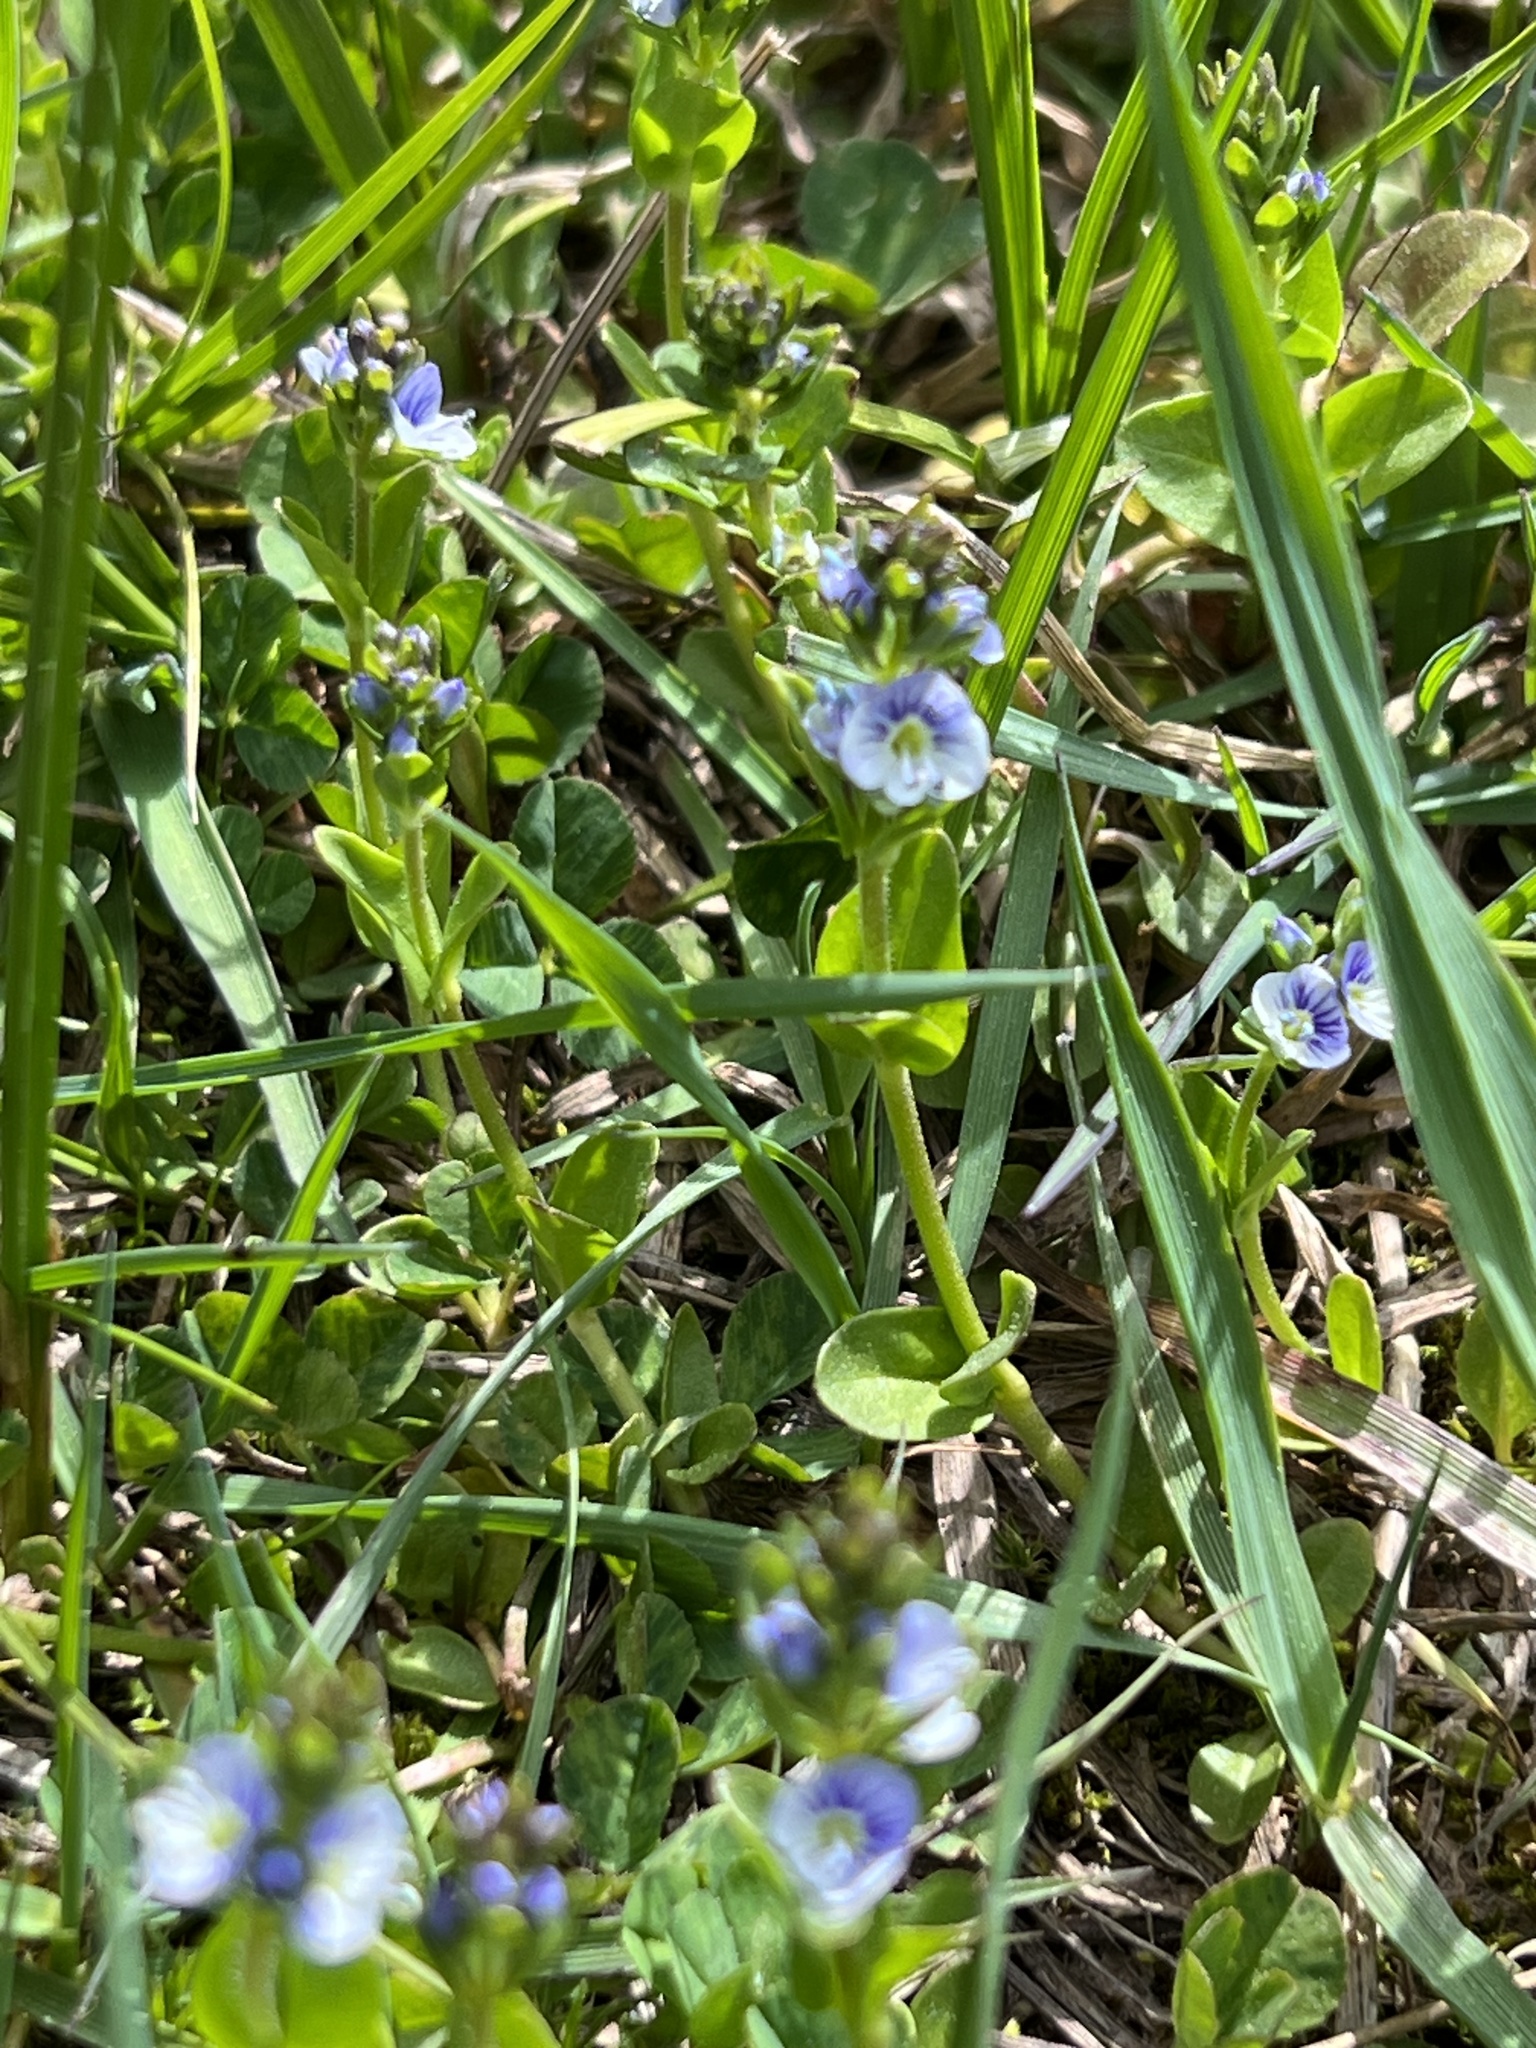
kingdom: Plantae
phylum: Tracheophyta
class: Magnoliopsida
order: Lamiales
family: Plantaginaceae
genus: Veronica
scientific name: Veronica serpyllifolia
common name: Thyme-leaved speedwell
